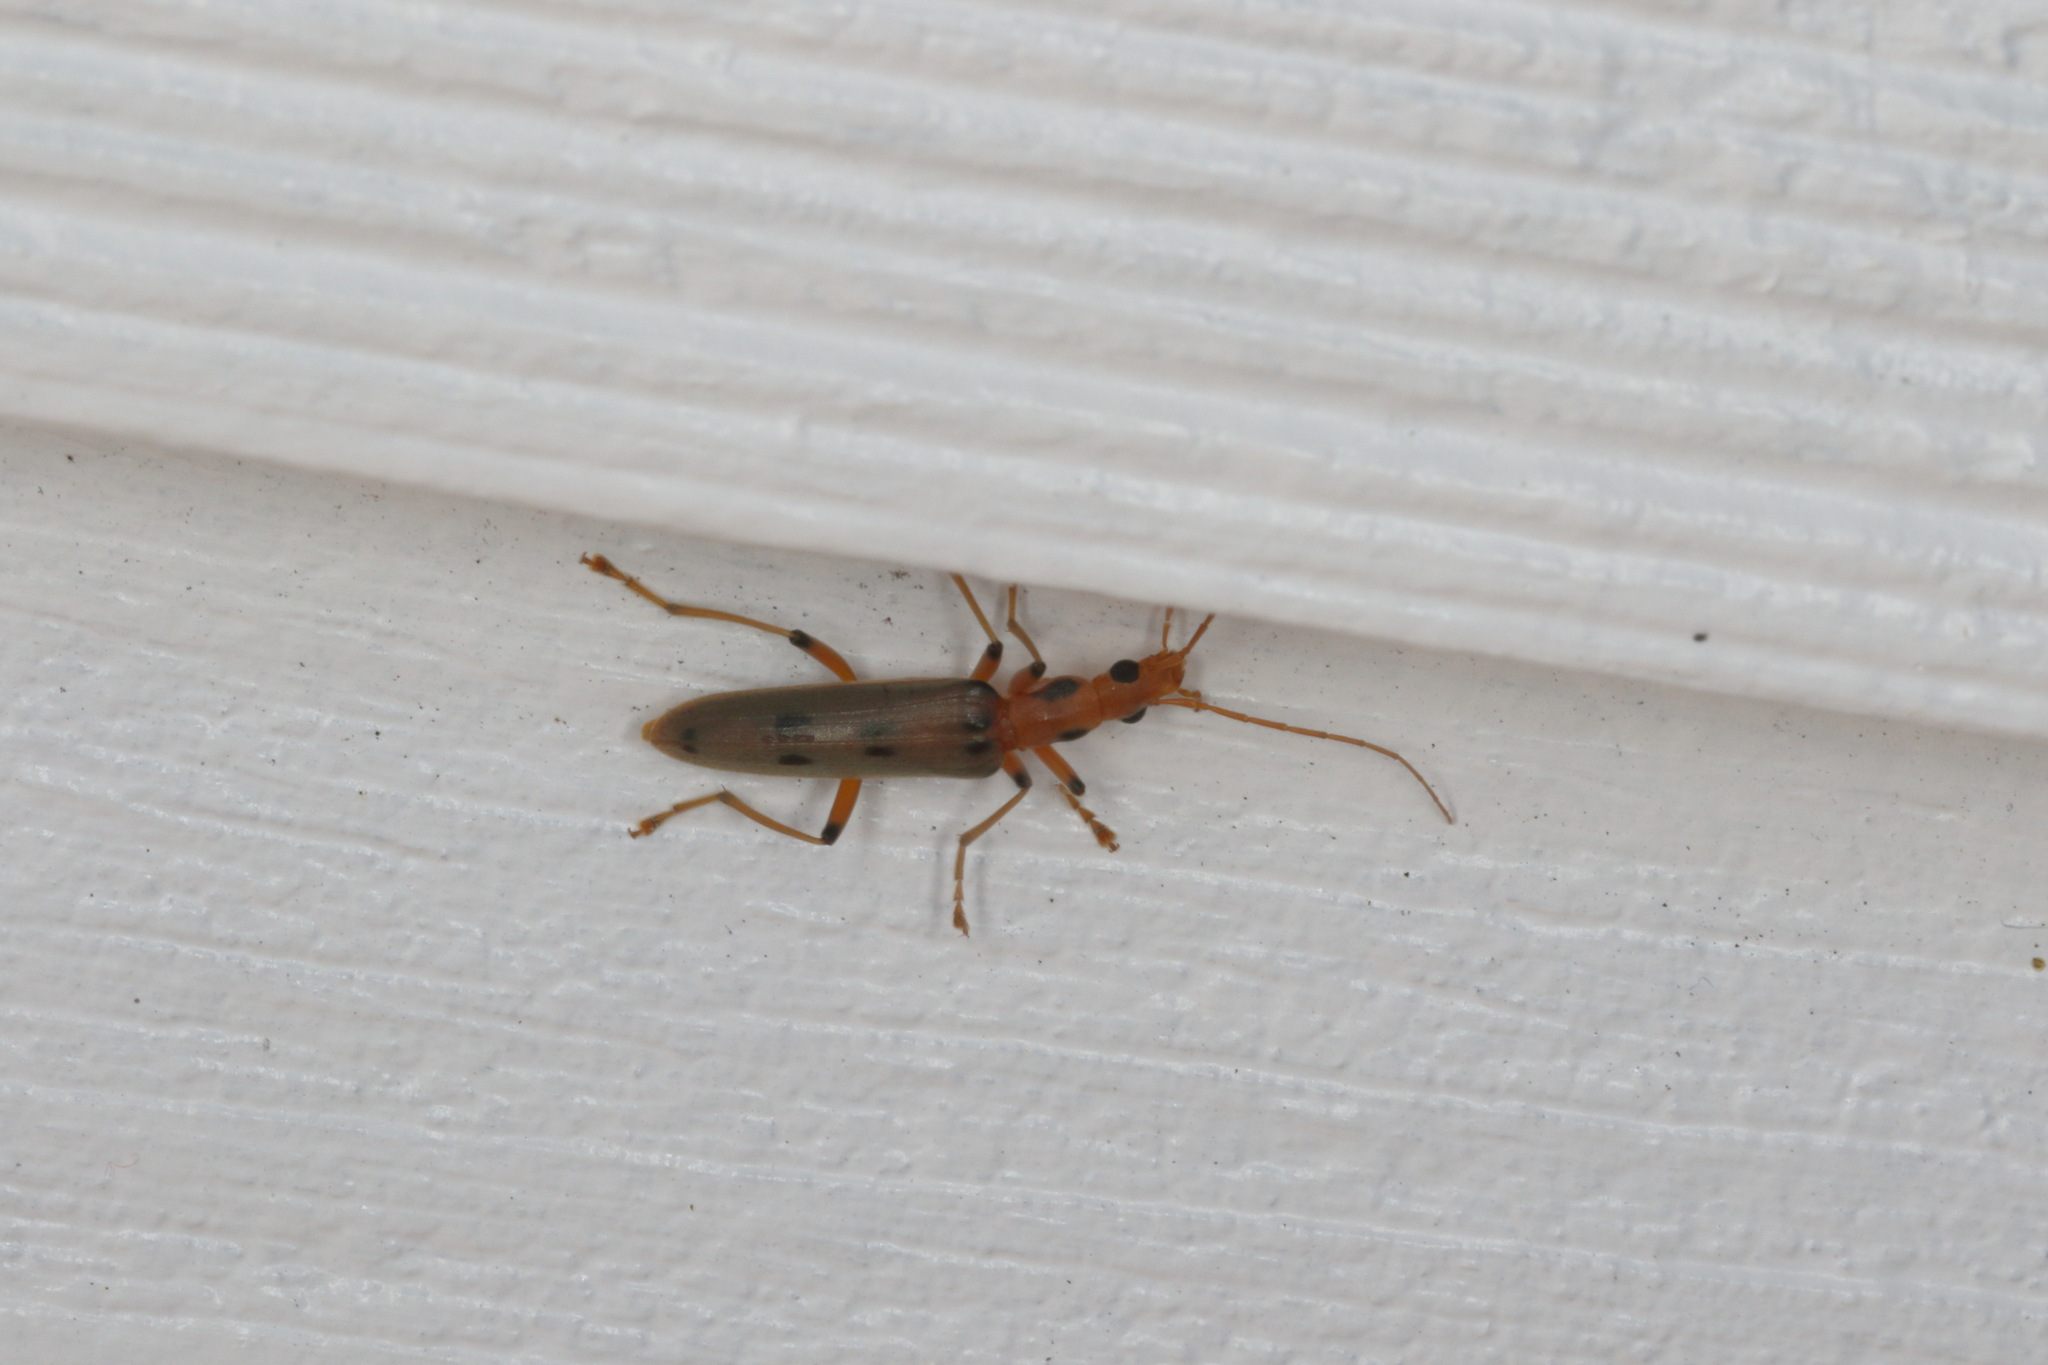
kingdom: Animalia
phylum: Arthropoda
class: Insecta
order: Coleoptera
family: Oedemeridae
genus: Parisopalpus
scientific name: Parisopalpus
